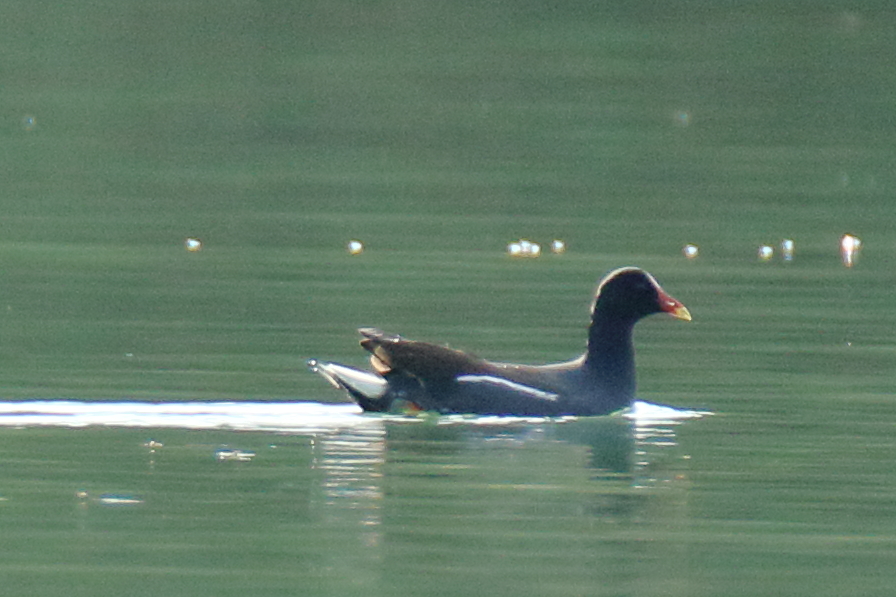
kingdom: Animalia
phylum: Chordata
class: Aves
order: Gruiformes
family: Rallidae
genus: Gallinula
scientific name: Gallinula chloropus
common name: Common moorhen
